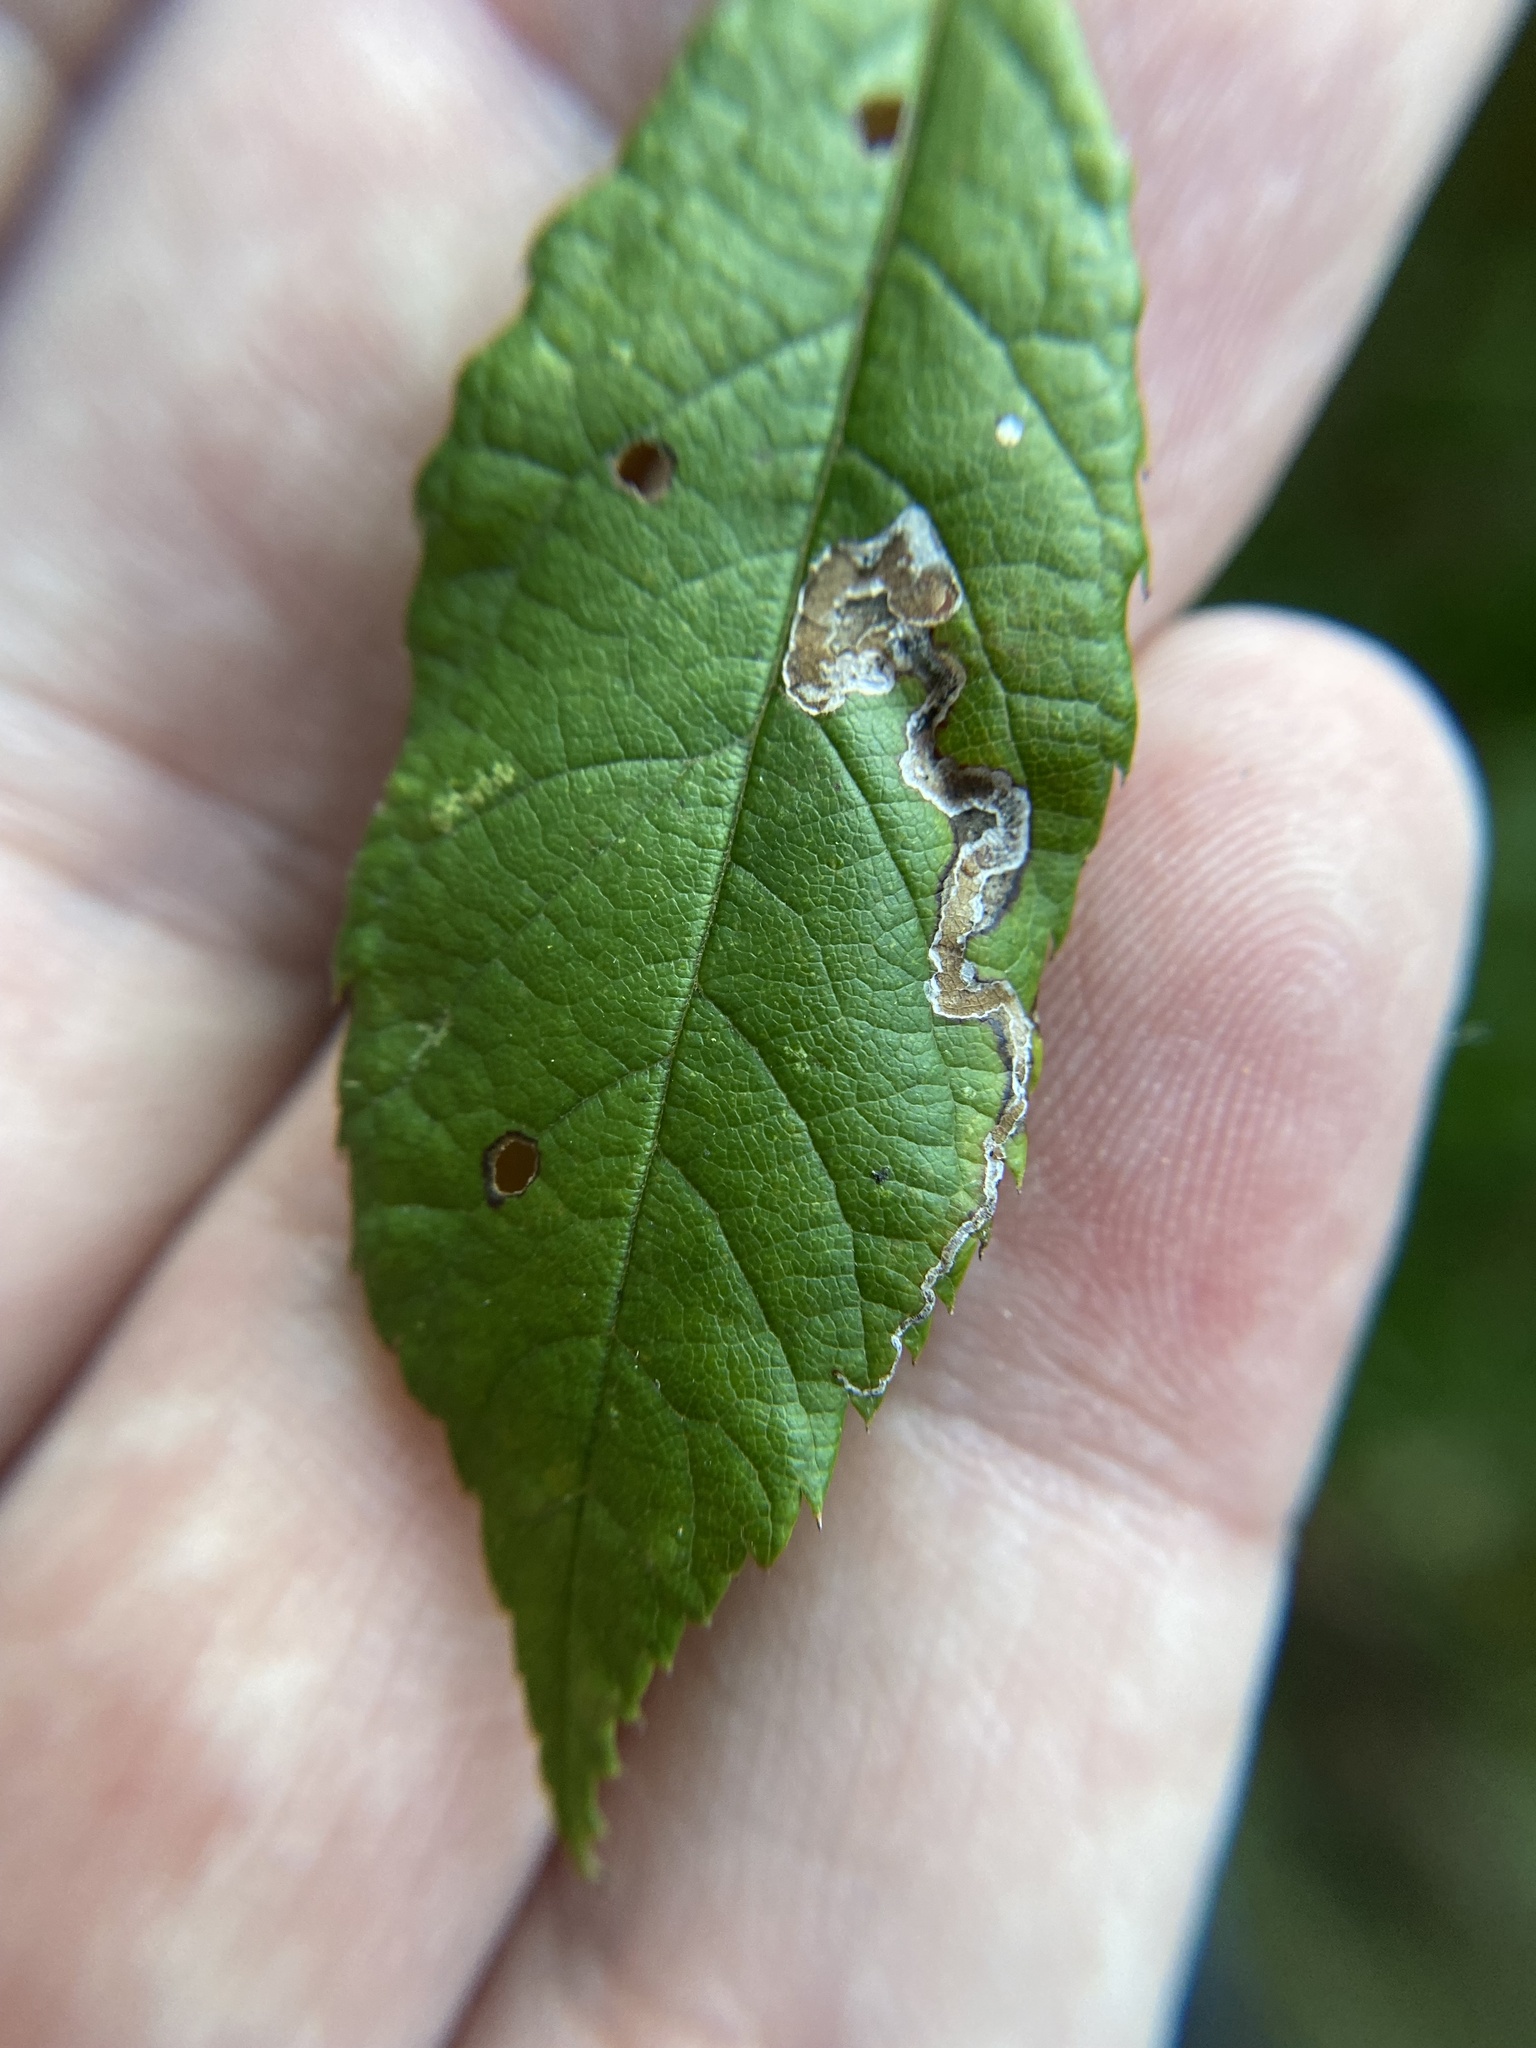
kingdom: Animalia
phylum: Arthropoda
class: Insecta
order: Lepidoptera
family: Nepticulidae
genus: Stigmella
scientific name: Stigmella rosaefoliella
